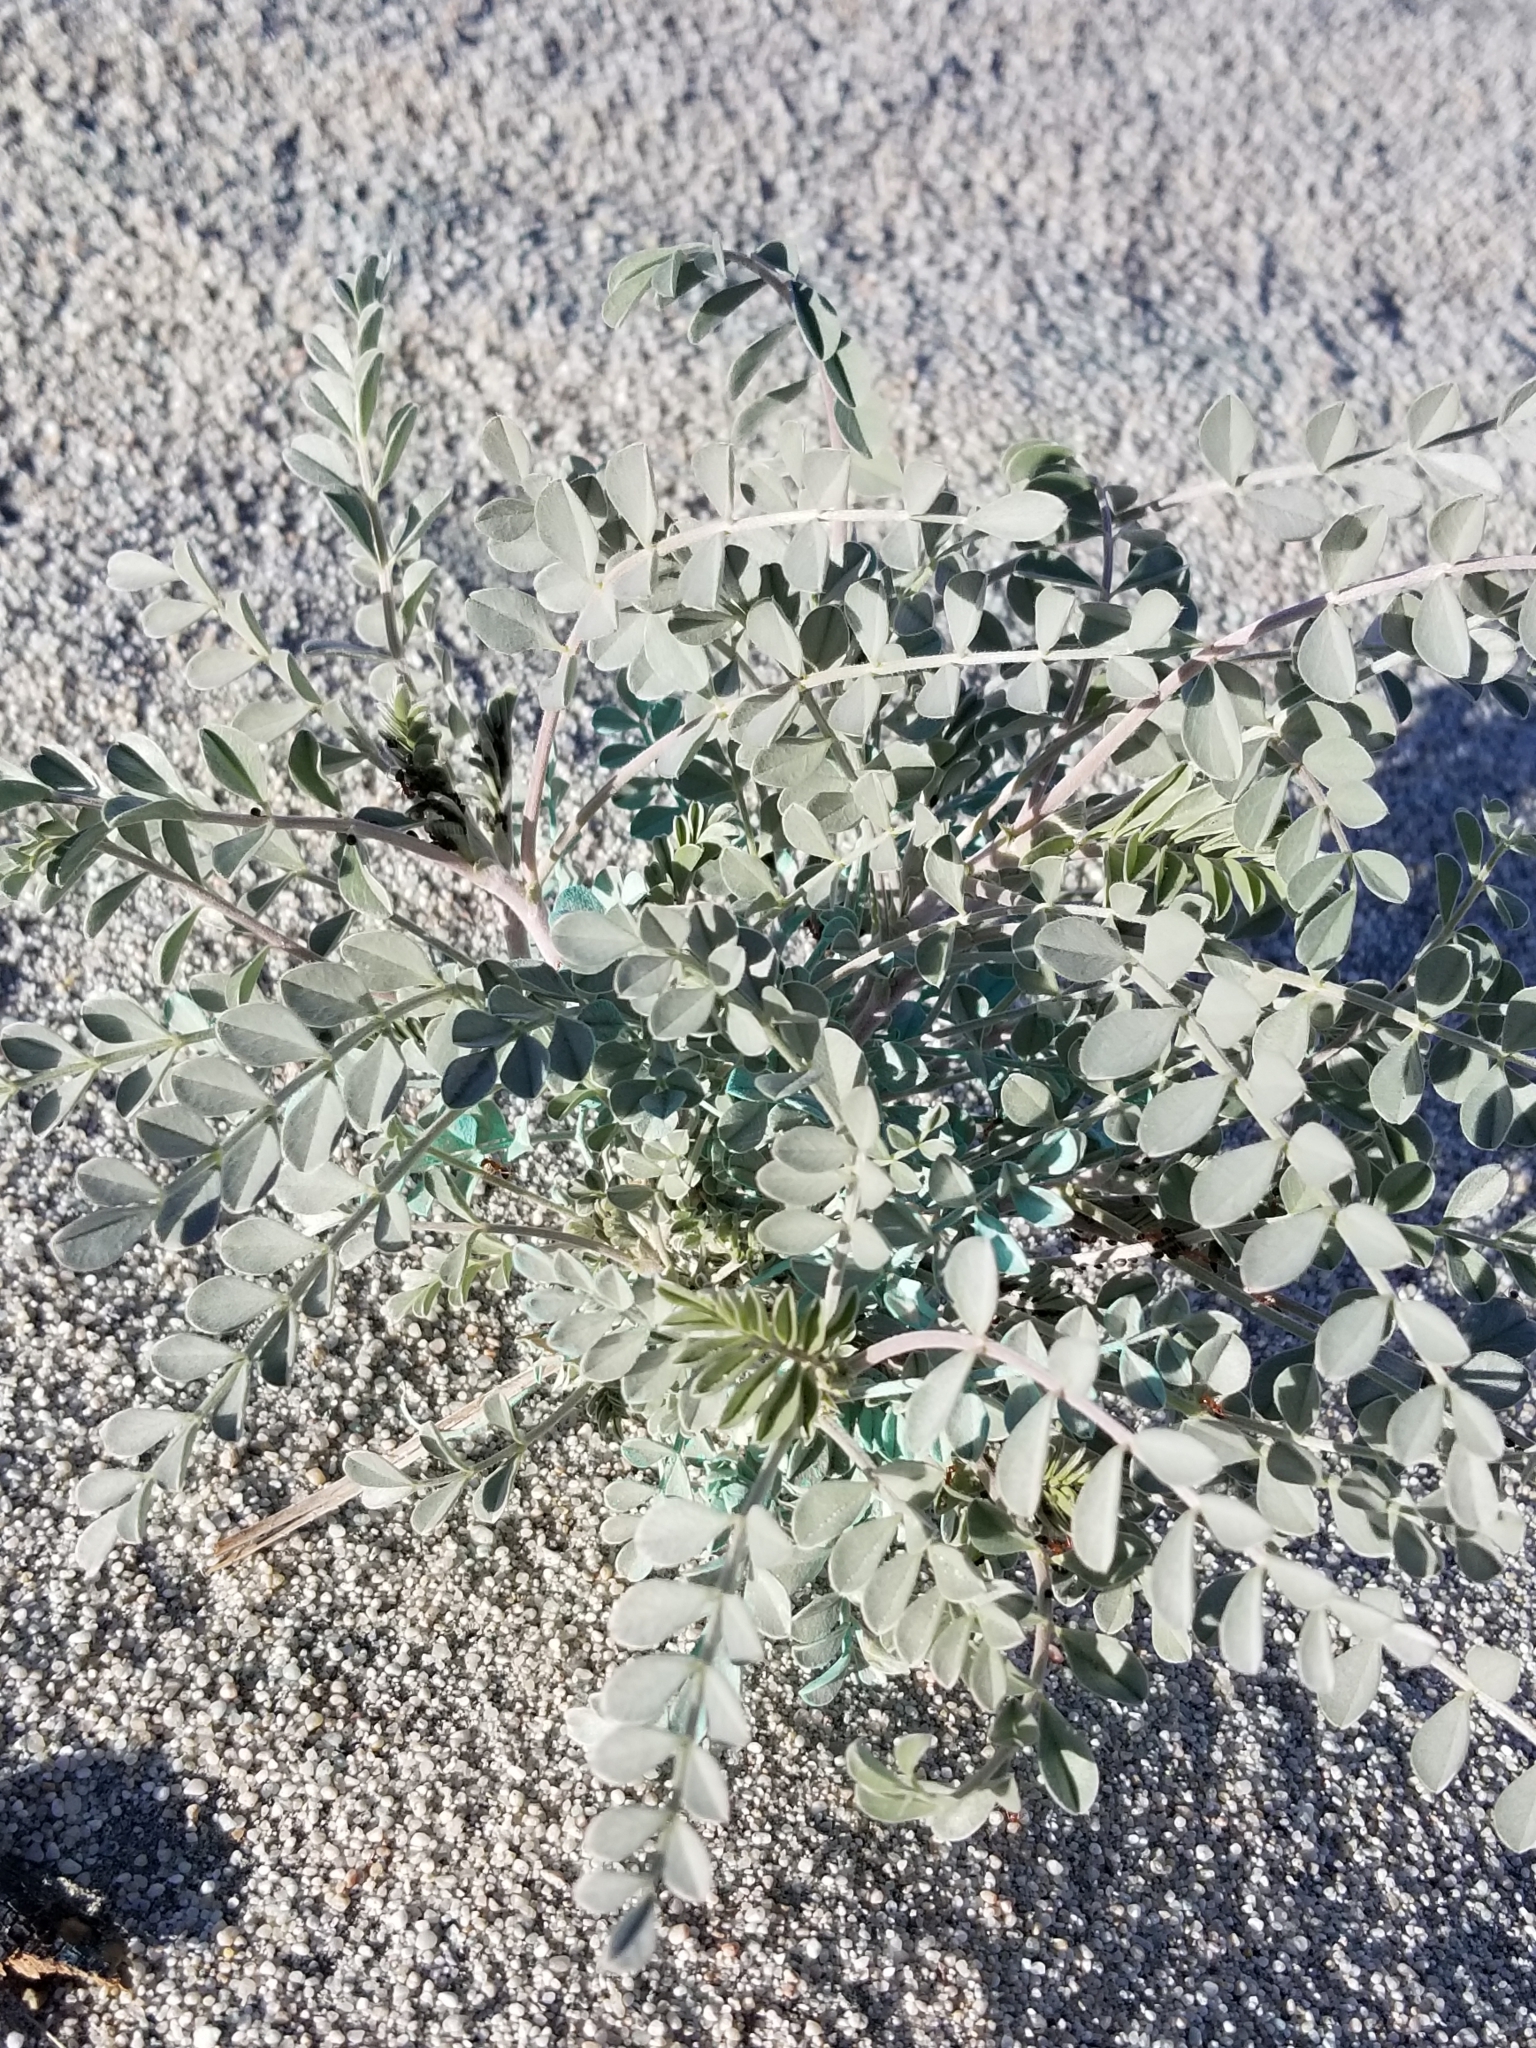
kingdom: Plantae
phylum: Tracheophyta
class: Magnoliopsida
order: Fabales
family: Fabaceae
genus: Astragalus
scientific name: Astragalus lentiginosus
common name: Freckled milkvetch
